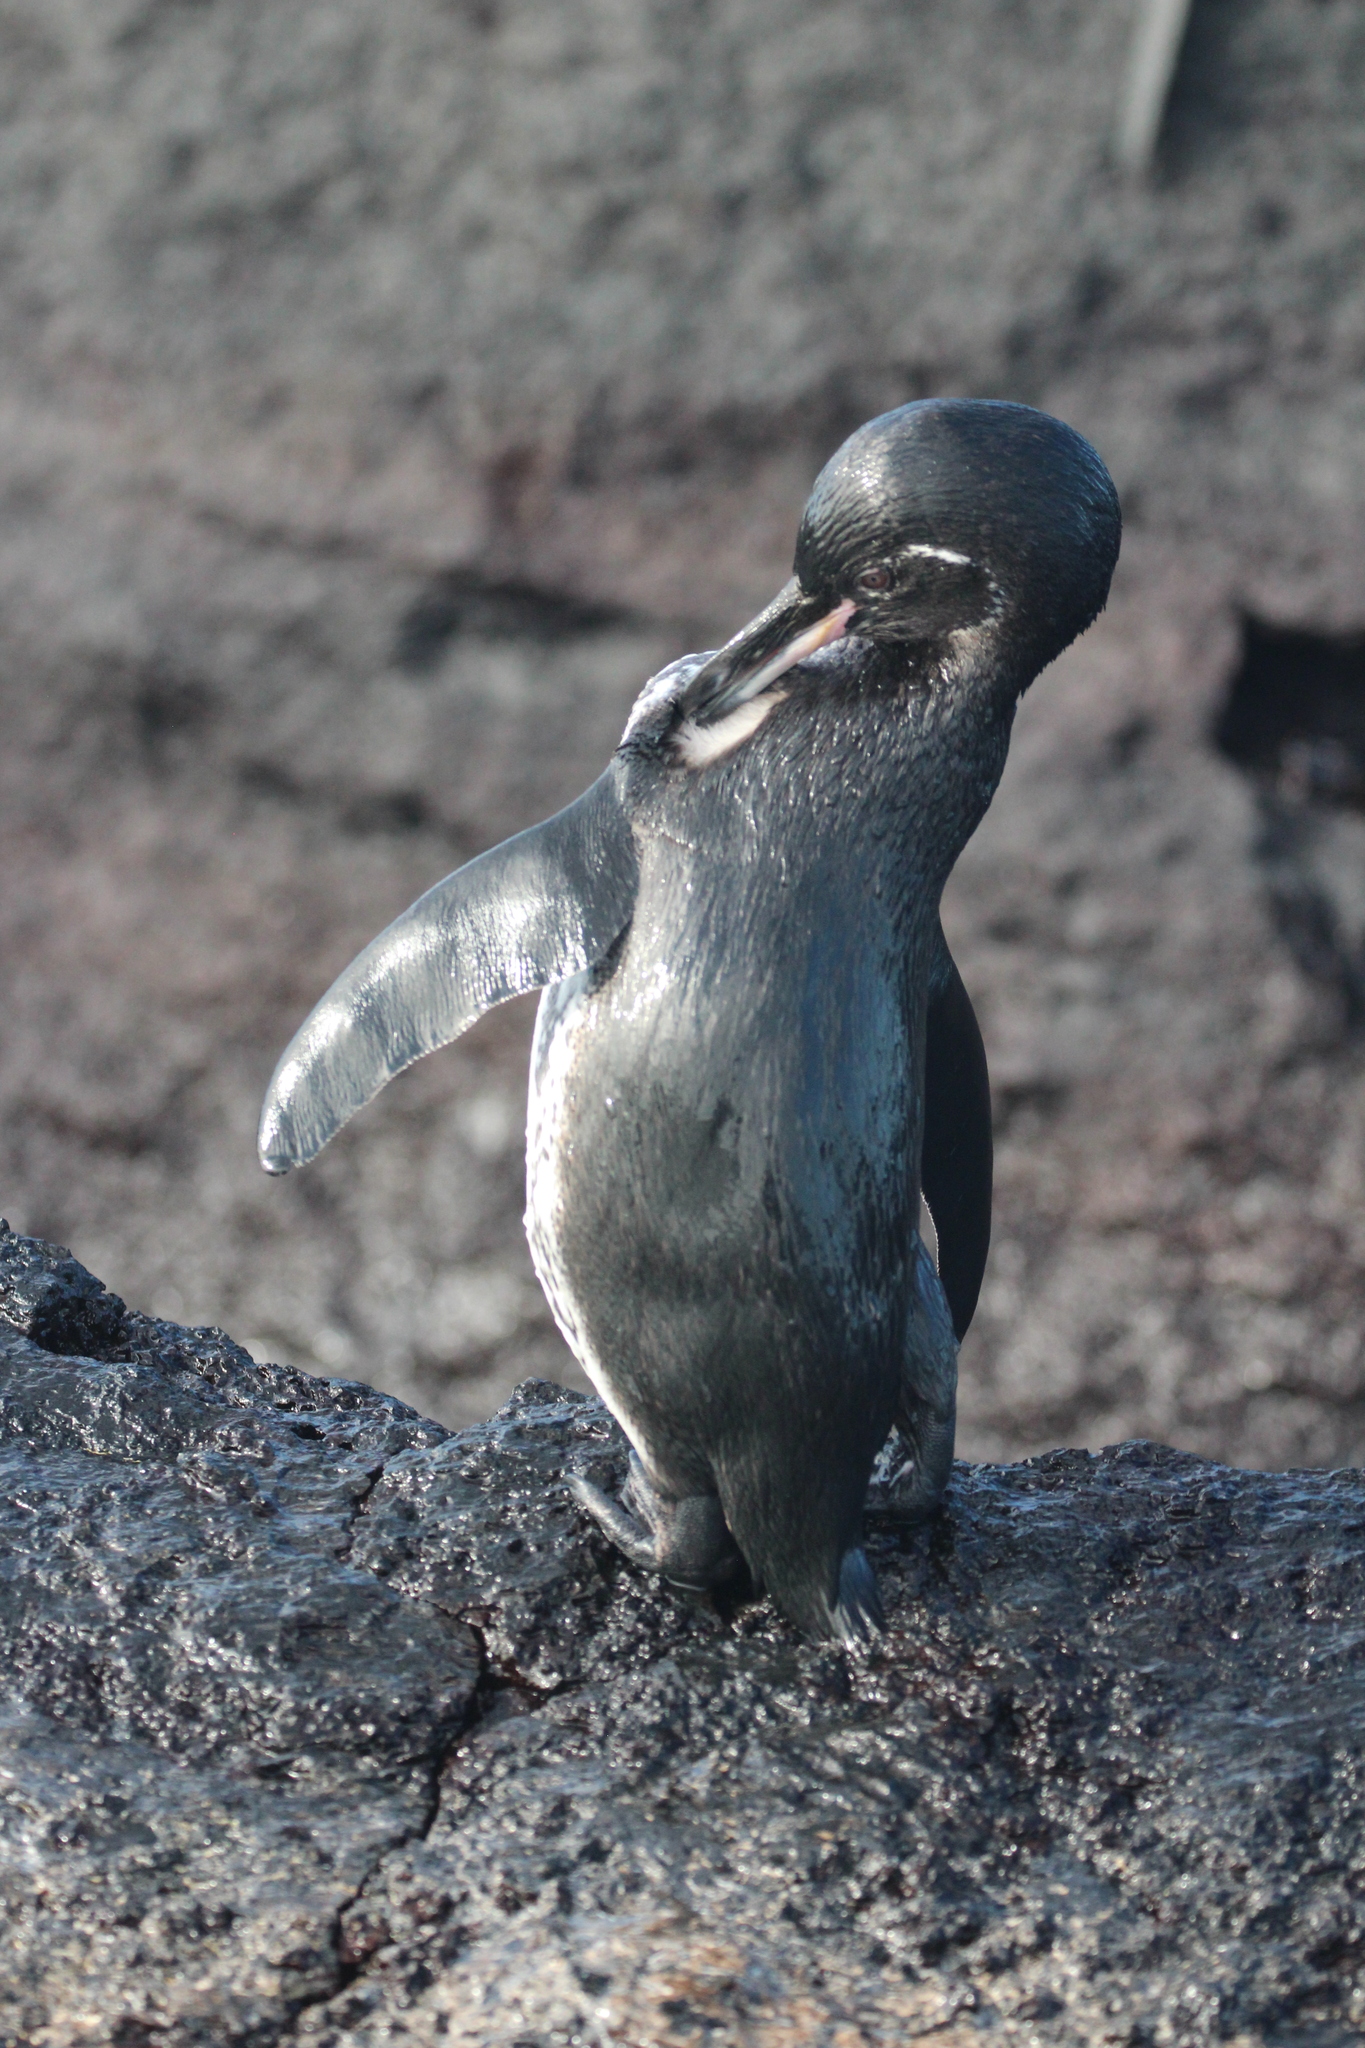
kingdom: Animalia
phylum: Chordata
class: Aves
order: Sphenisciformes
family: Spheniscidae
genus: Spheniscus
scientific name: Spheniscus mendiculus
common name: Galapagos penguin
